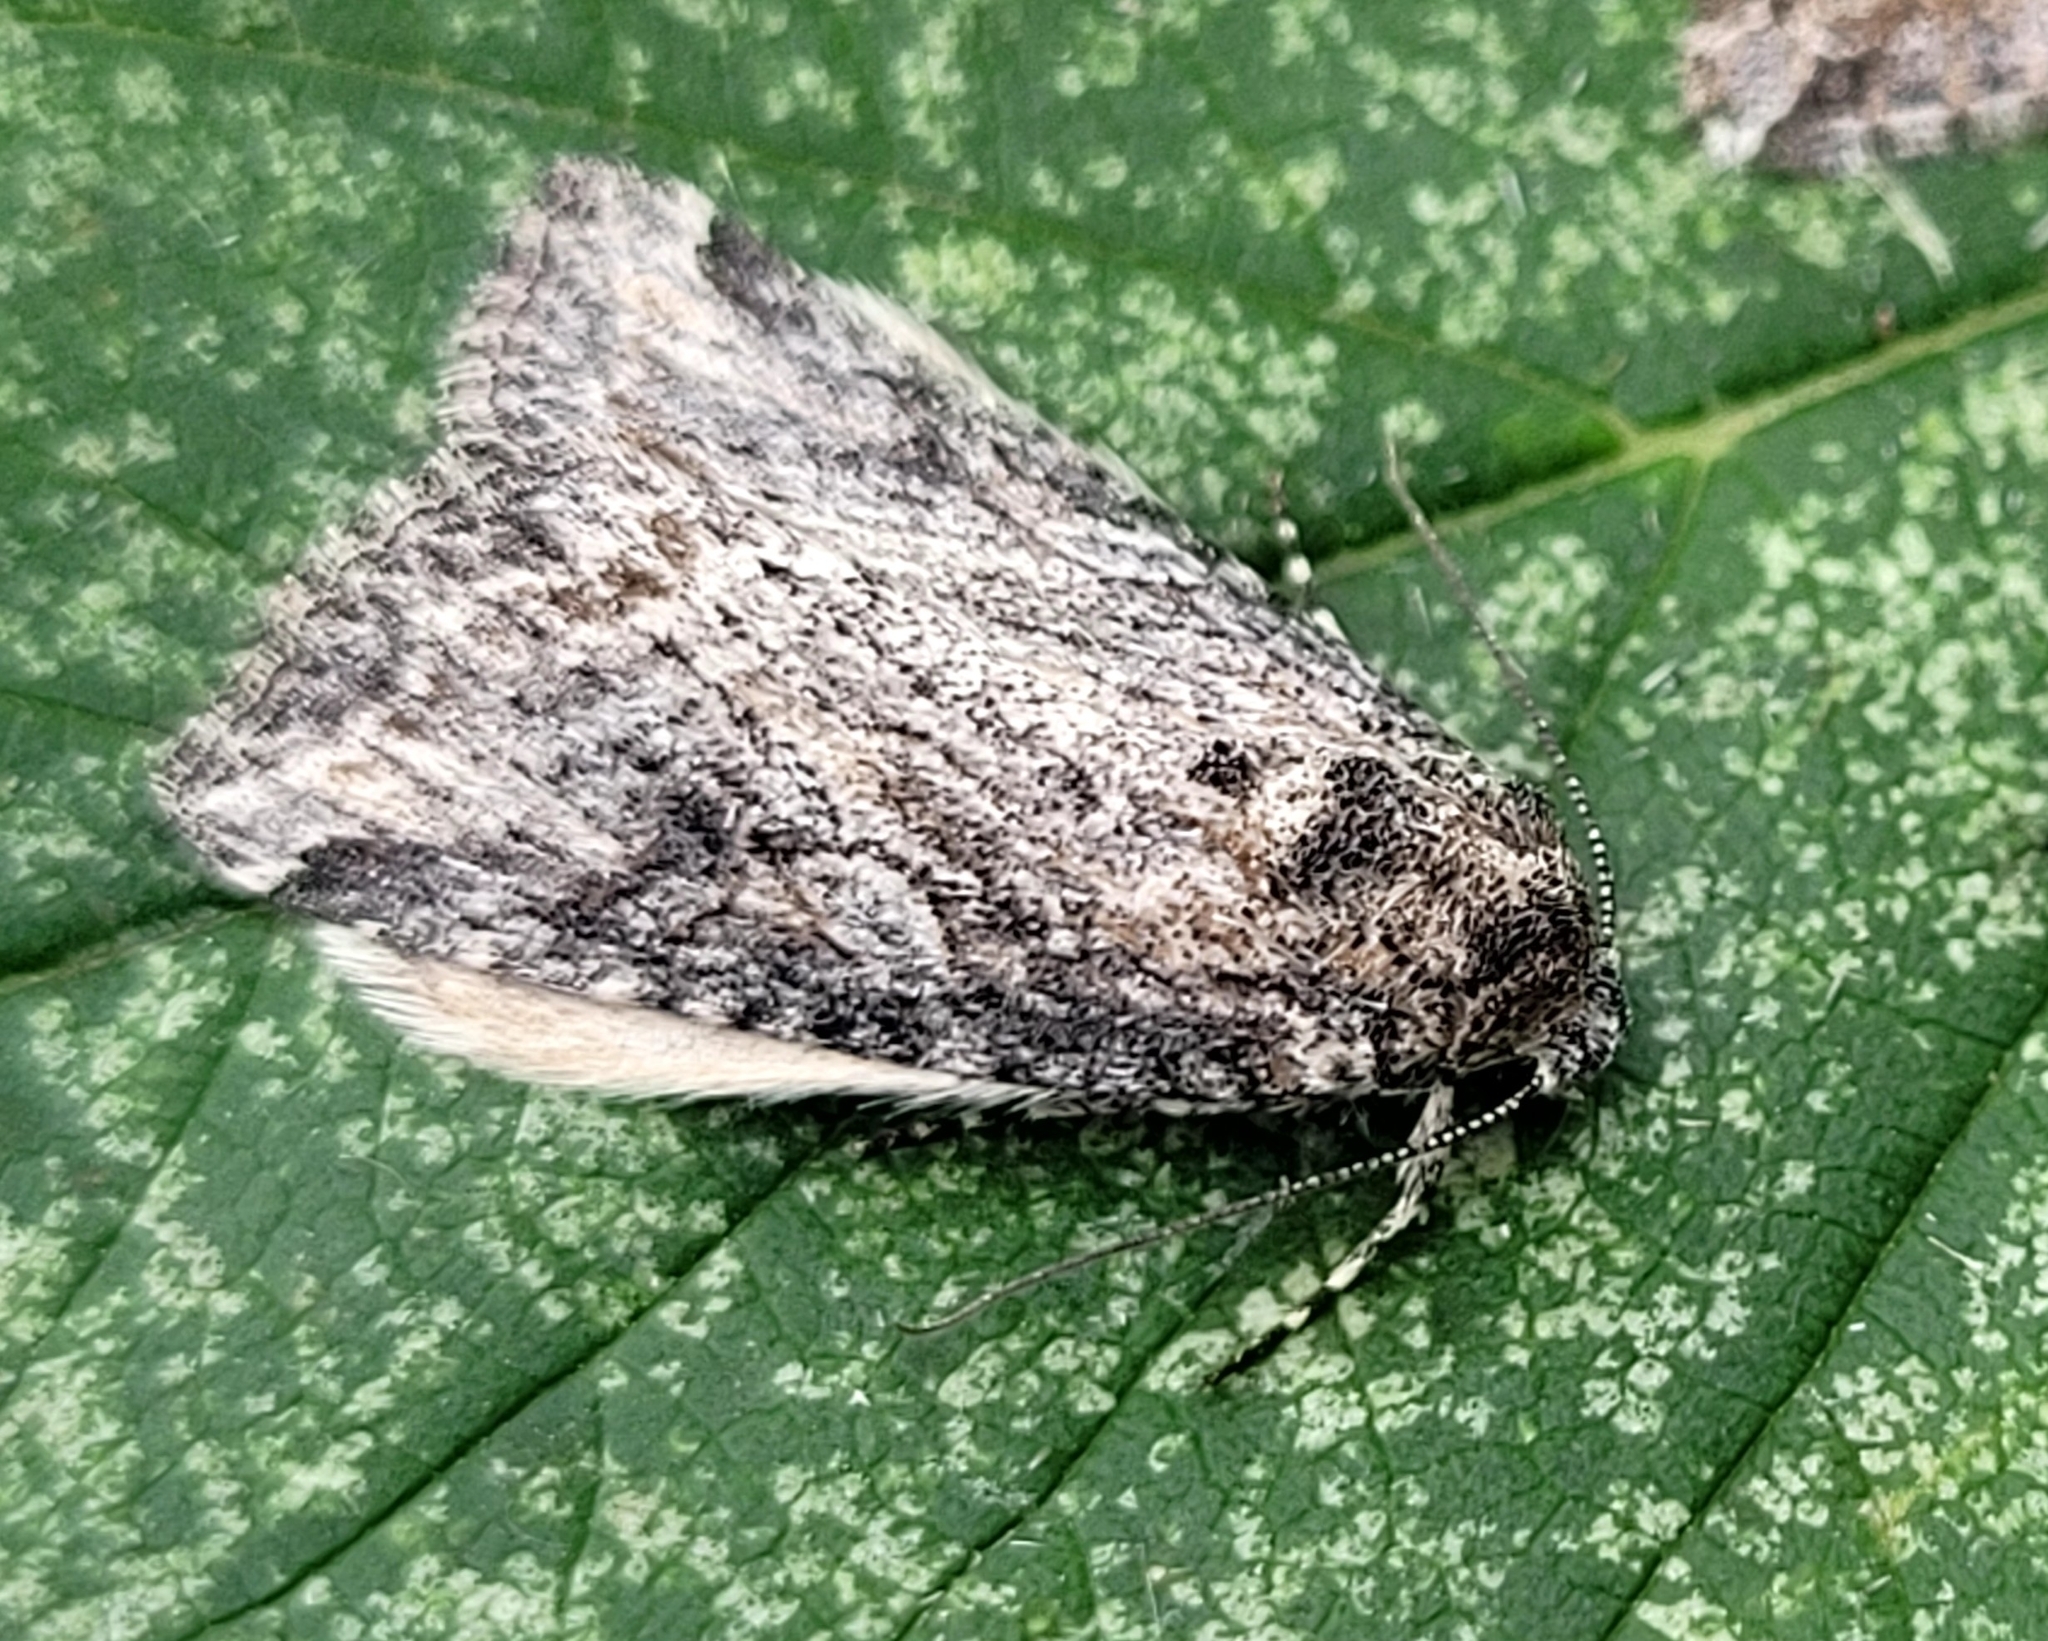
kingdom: Animalia
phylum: Arthropoda
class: Insecta
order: Lepidoptera
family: Noctuidae
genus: Afotella
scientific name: Afotella cylindrica
